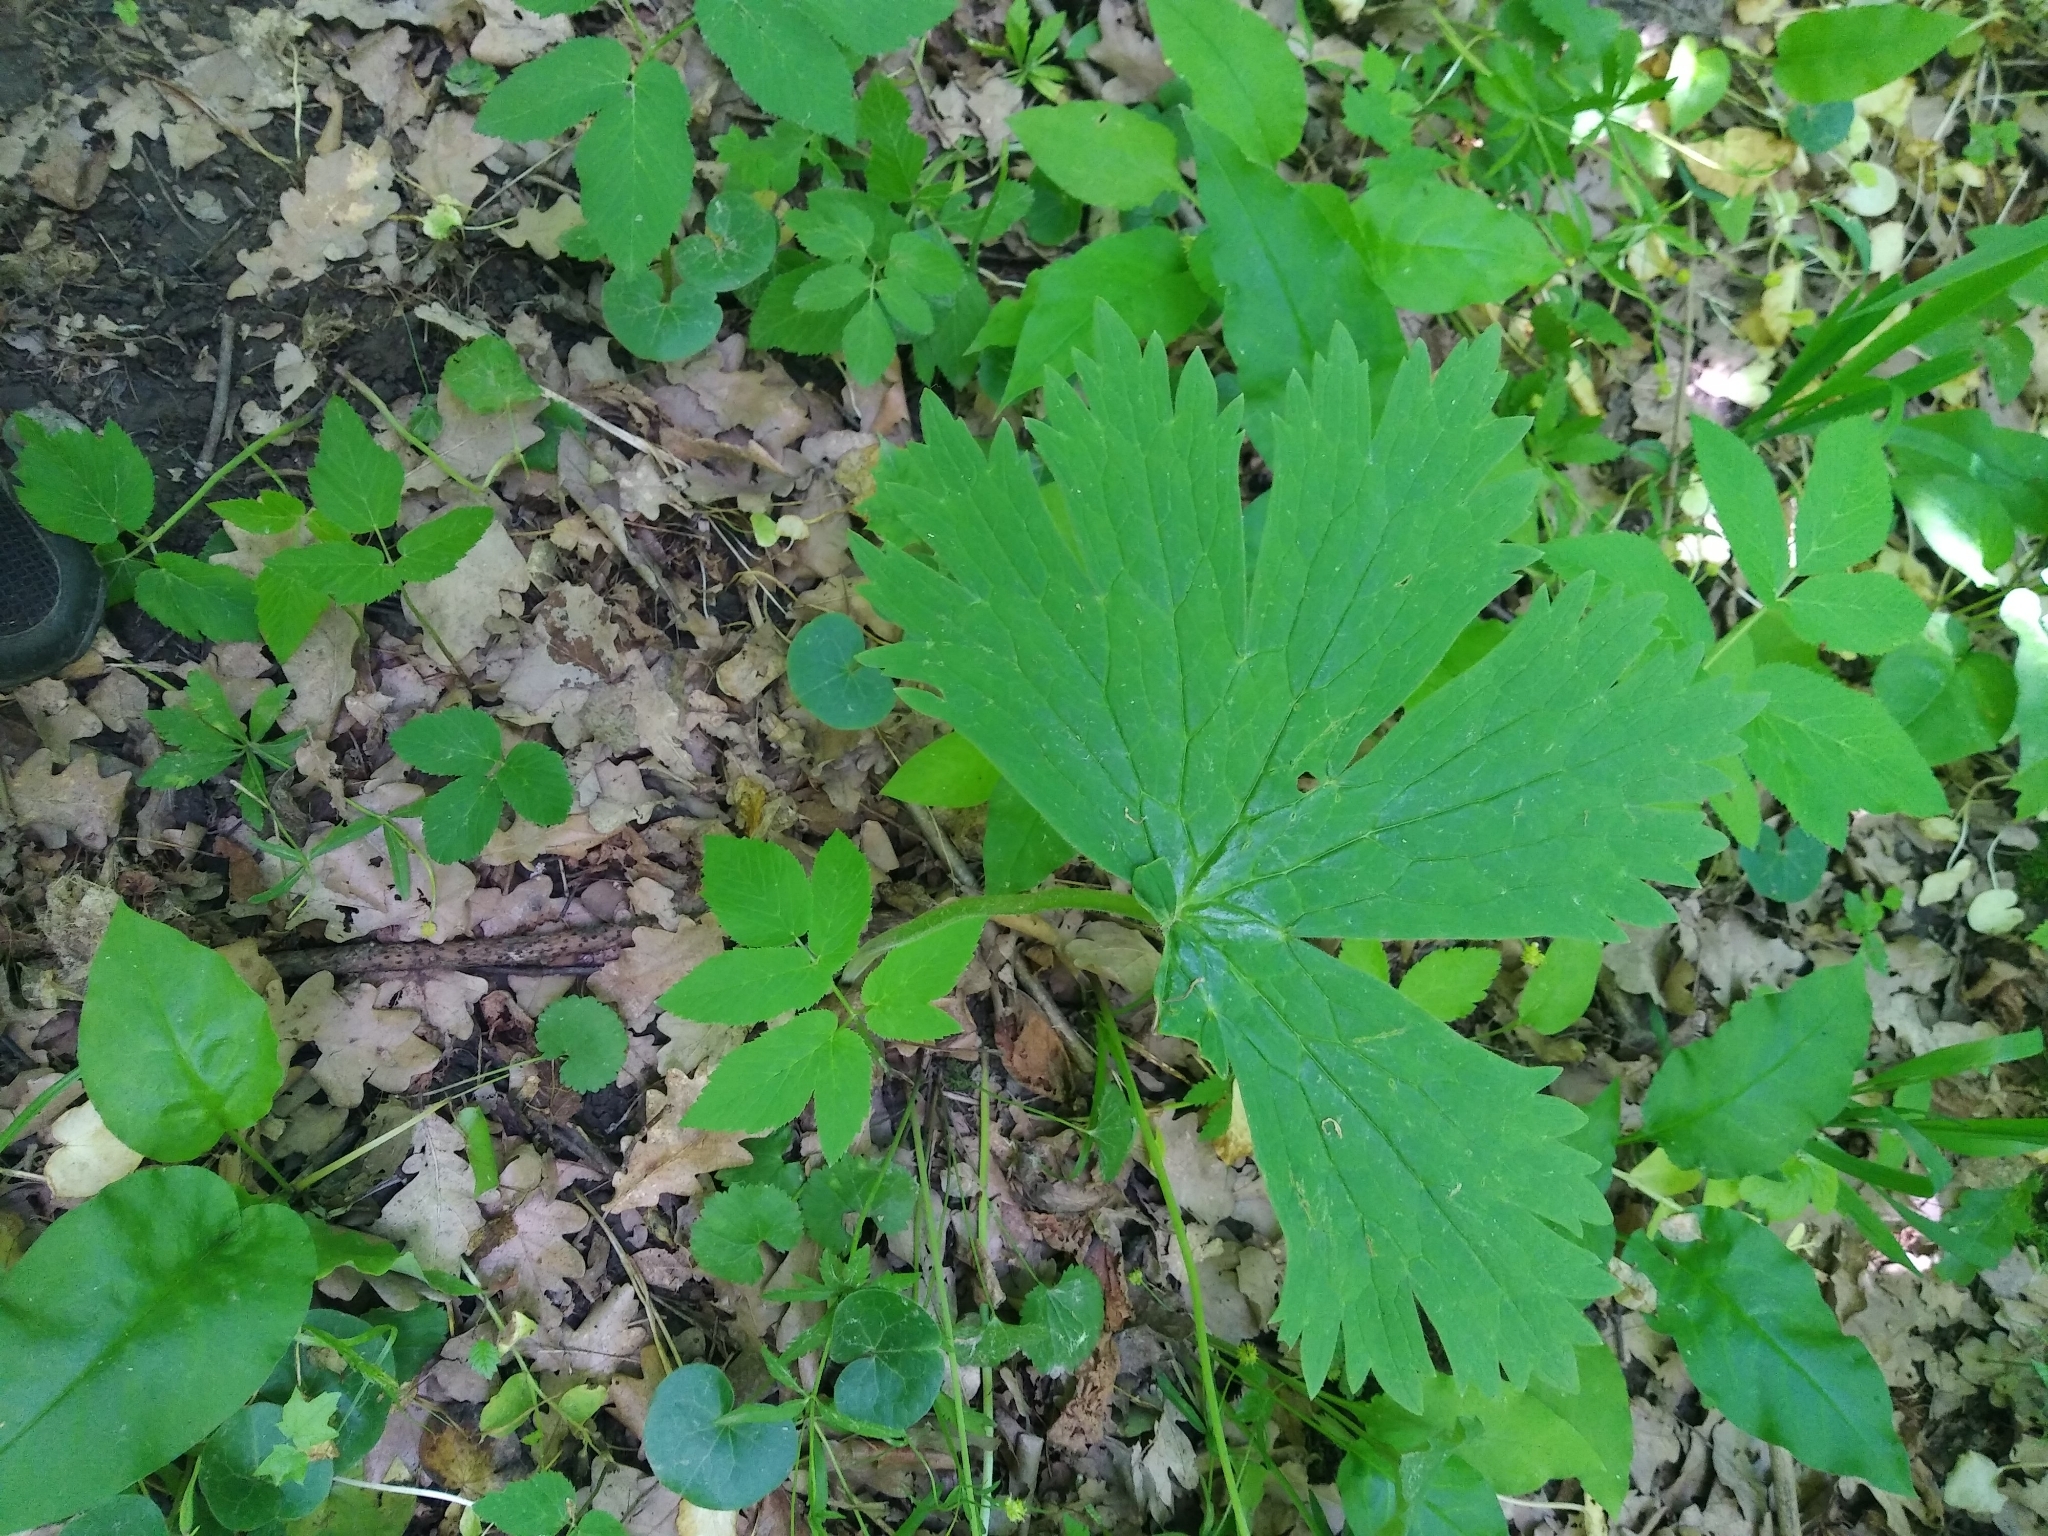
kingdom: Plantae
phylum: Tracheophyta
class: Magnoliopsida
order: Ranunculales
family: Ranunculaceae
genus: Aconitum
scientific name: Aconitum septentrionale
